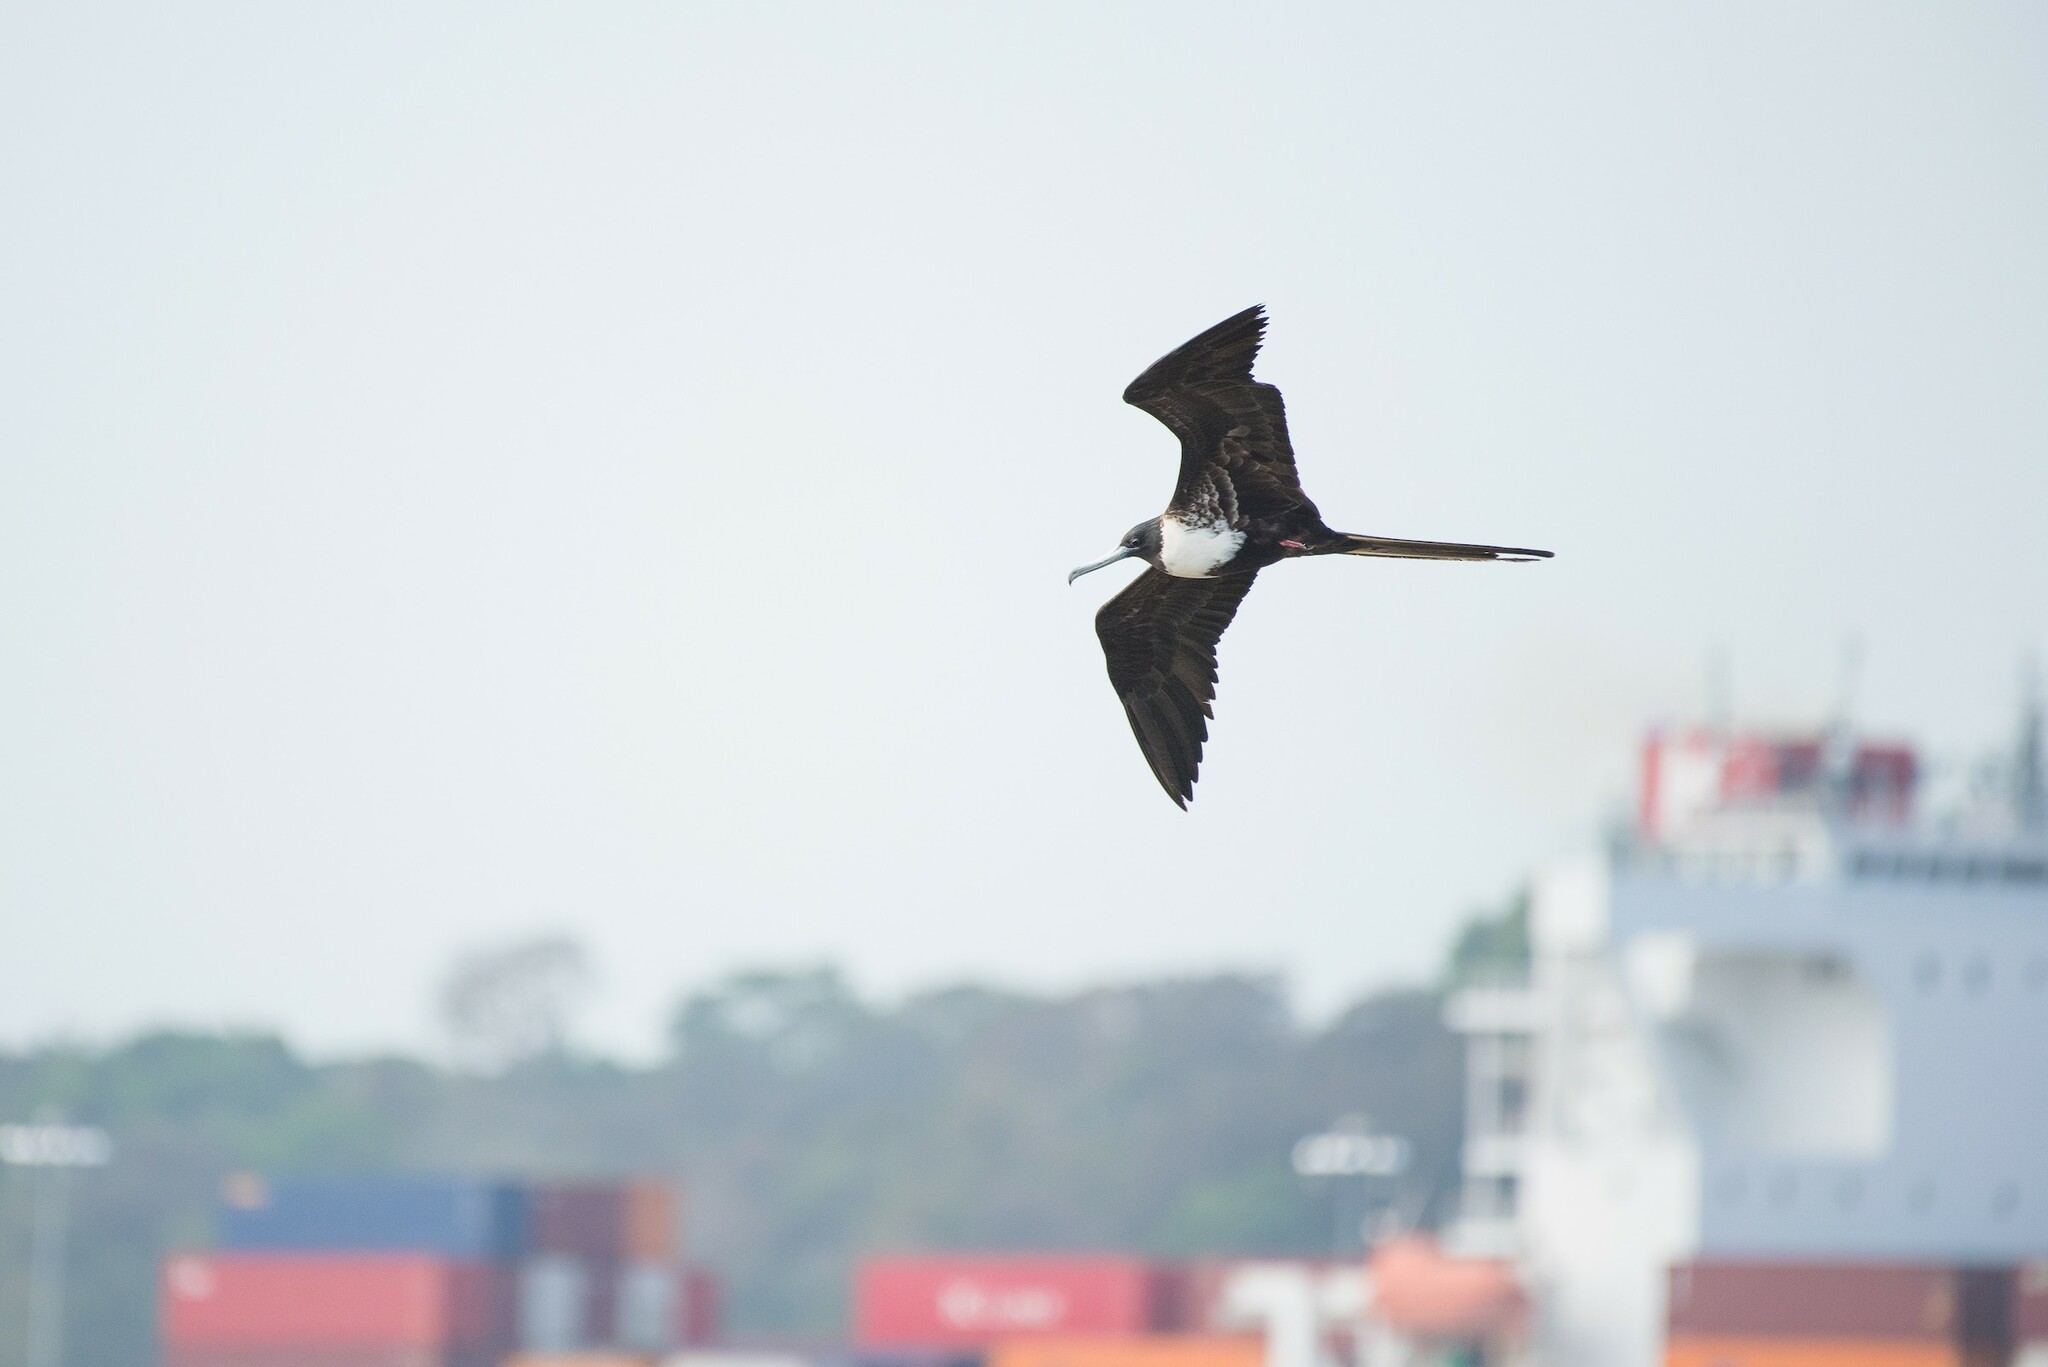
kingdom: Animalia
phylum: Chordata
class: Aves
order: Suliformes
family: Fregatidae
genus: Fregata
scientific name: Fregata magnificens
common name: Magnificent frigatebird
